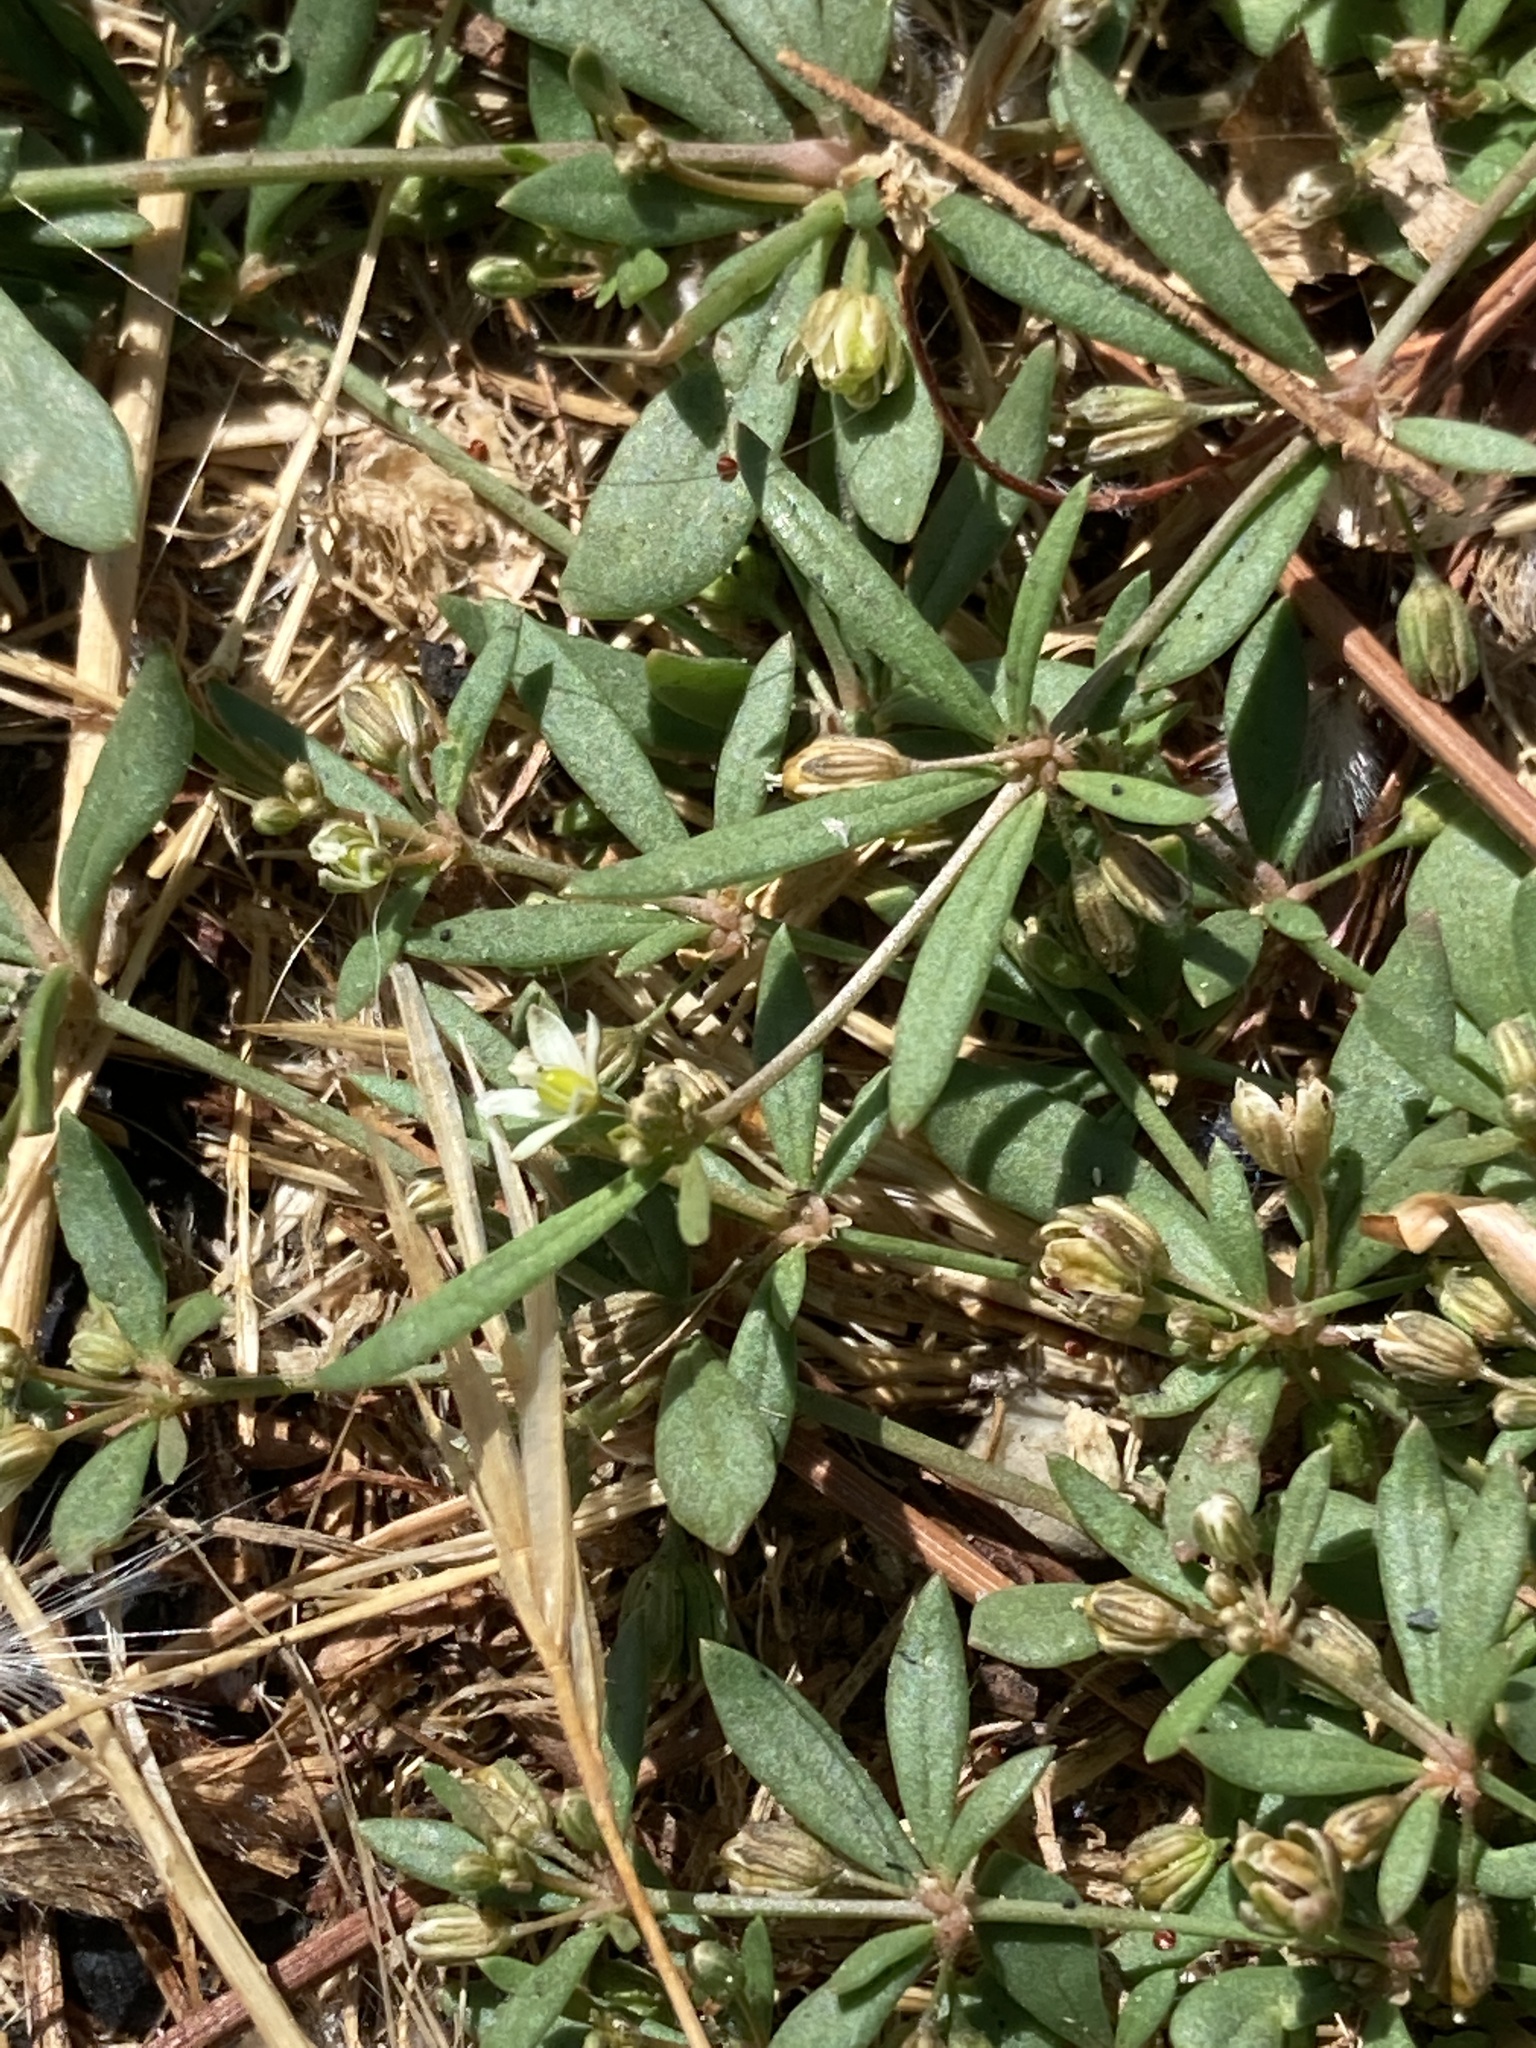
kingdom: Plantae
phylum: Tracheophyta
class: Magnoliopsida
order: Caryophyllales
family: Molluginaceae
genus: Mollugo
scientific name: Mollugo verticillata
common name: Green carpetweed
